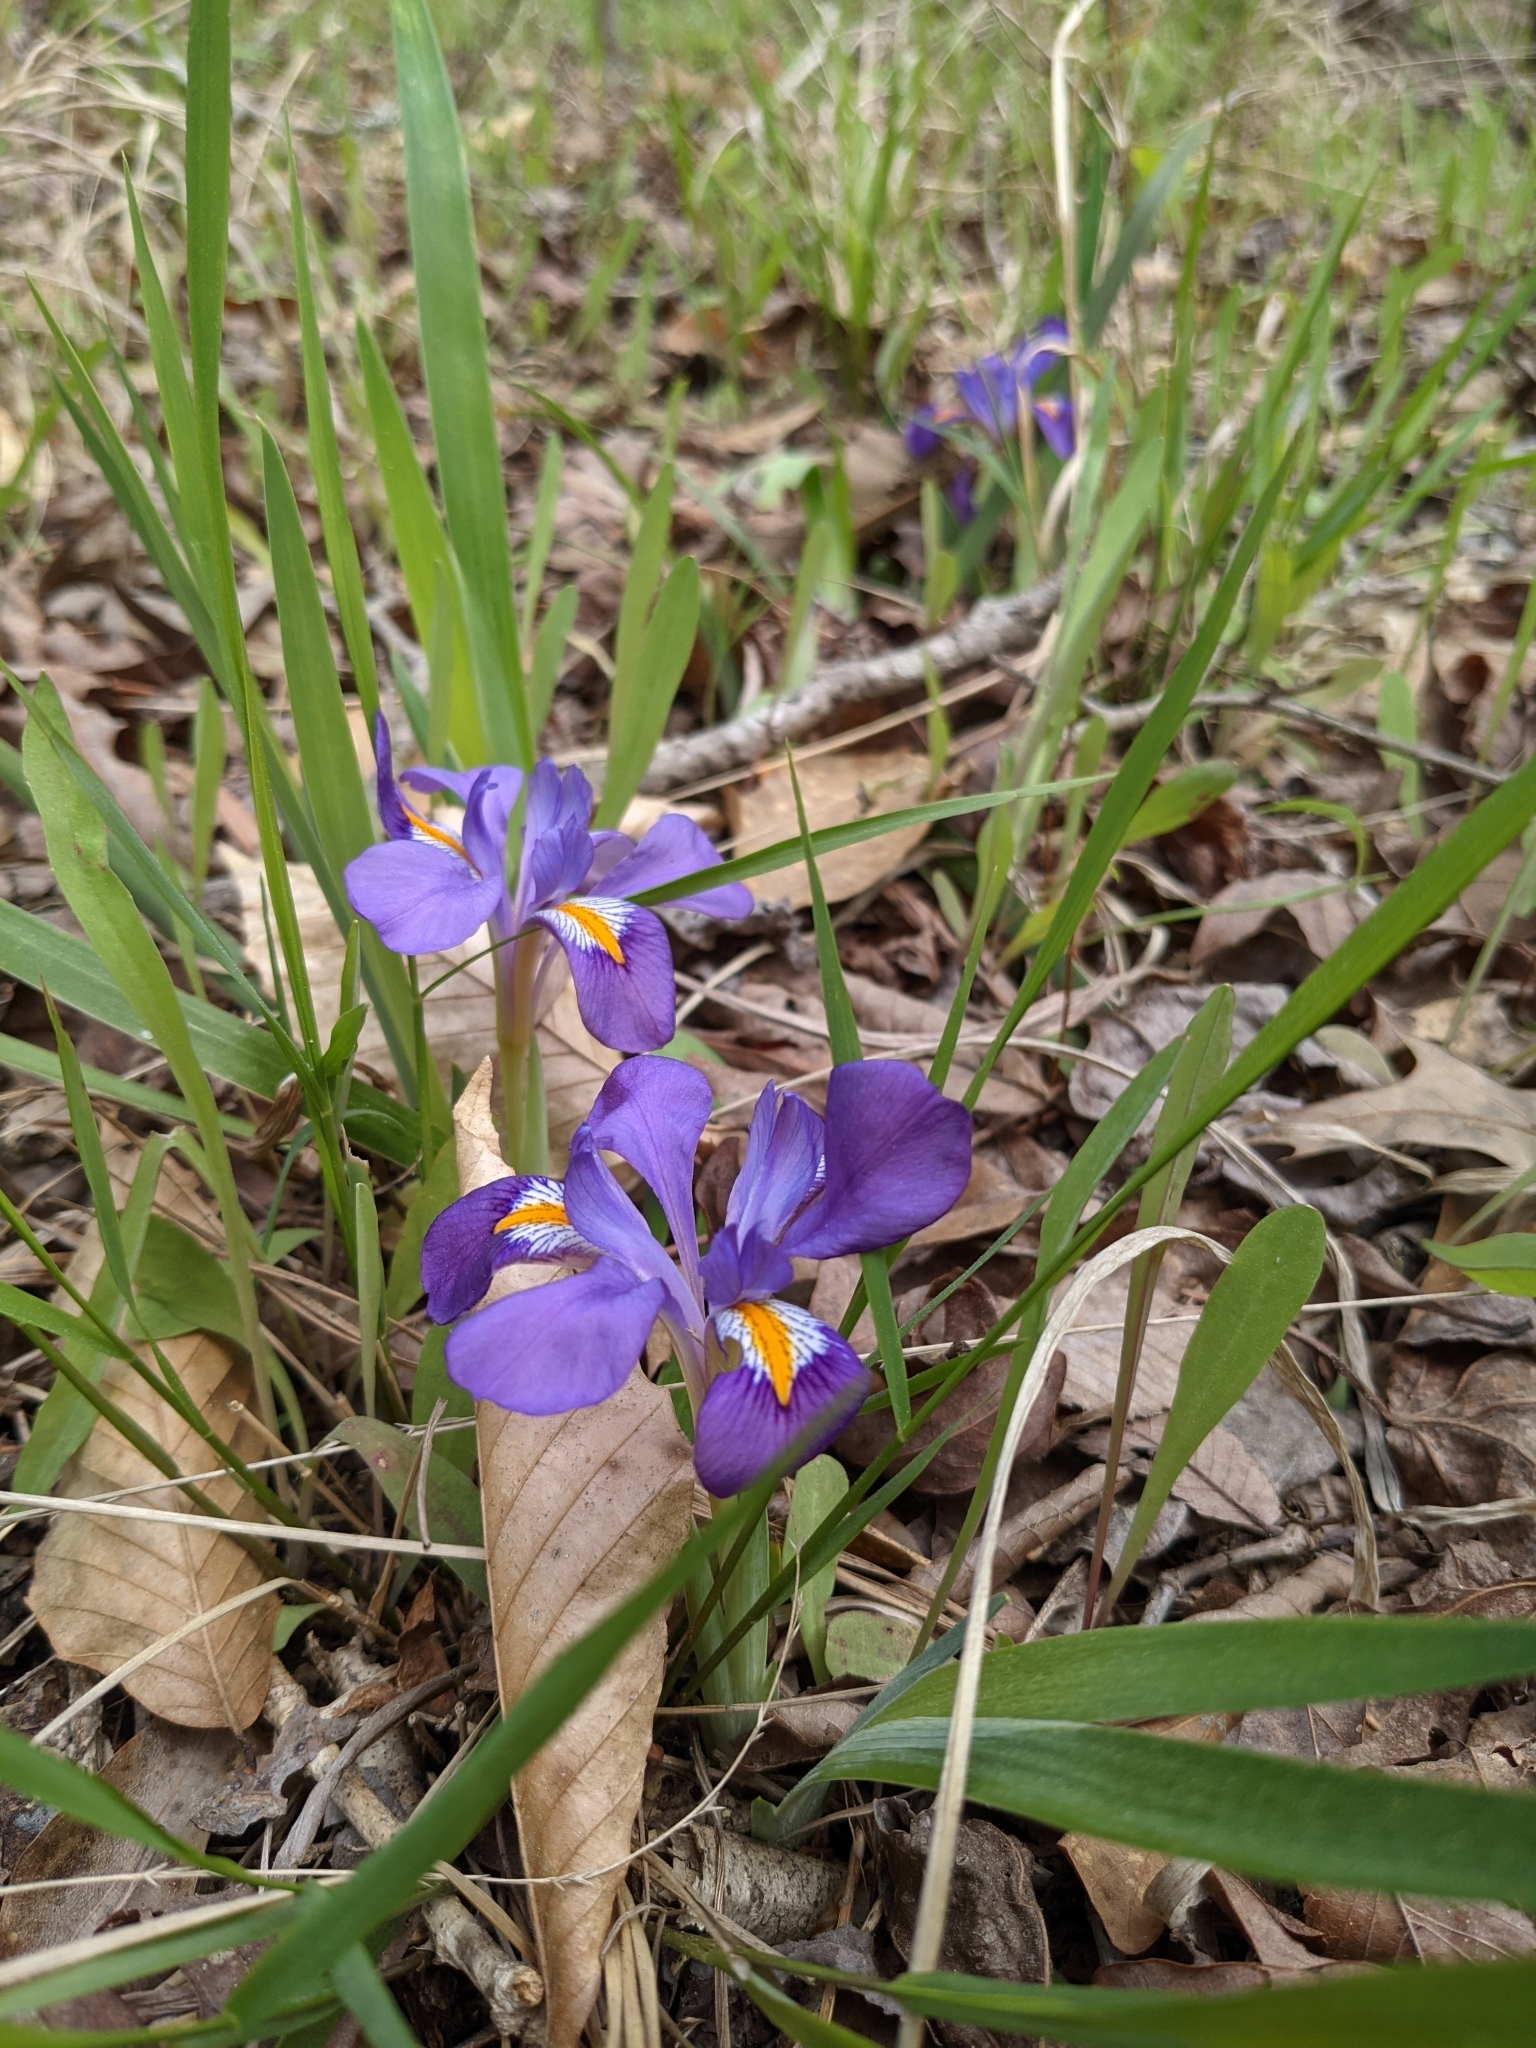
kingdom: Plantae
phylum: Tracheophyta
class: Liliopsida
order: Asparagales
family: Iridaceae
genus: Iris
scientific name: Iris verna
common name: Dwarf iris
